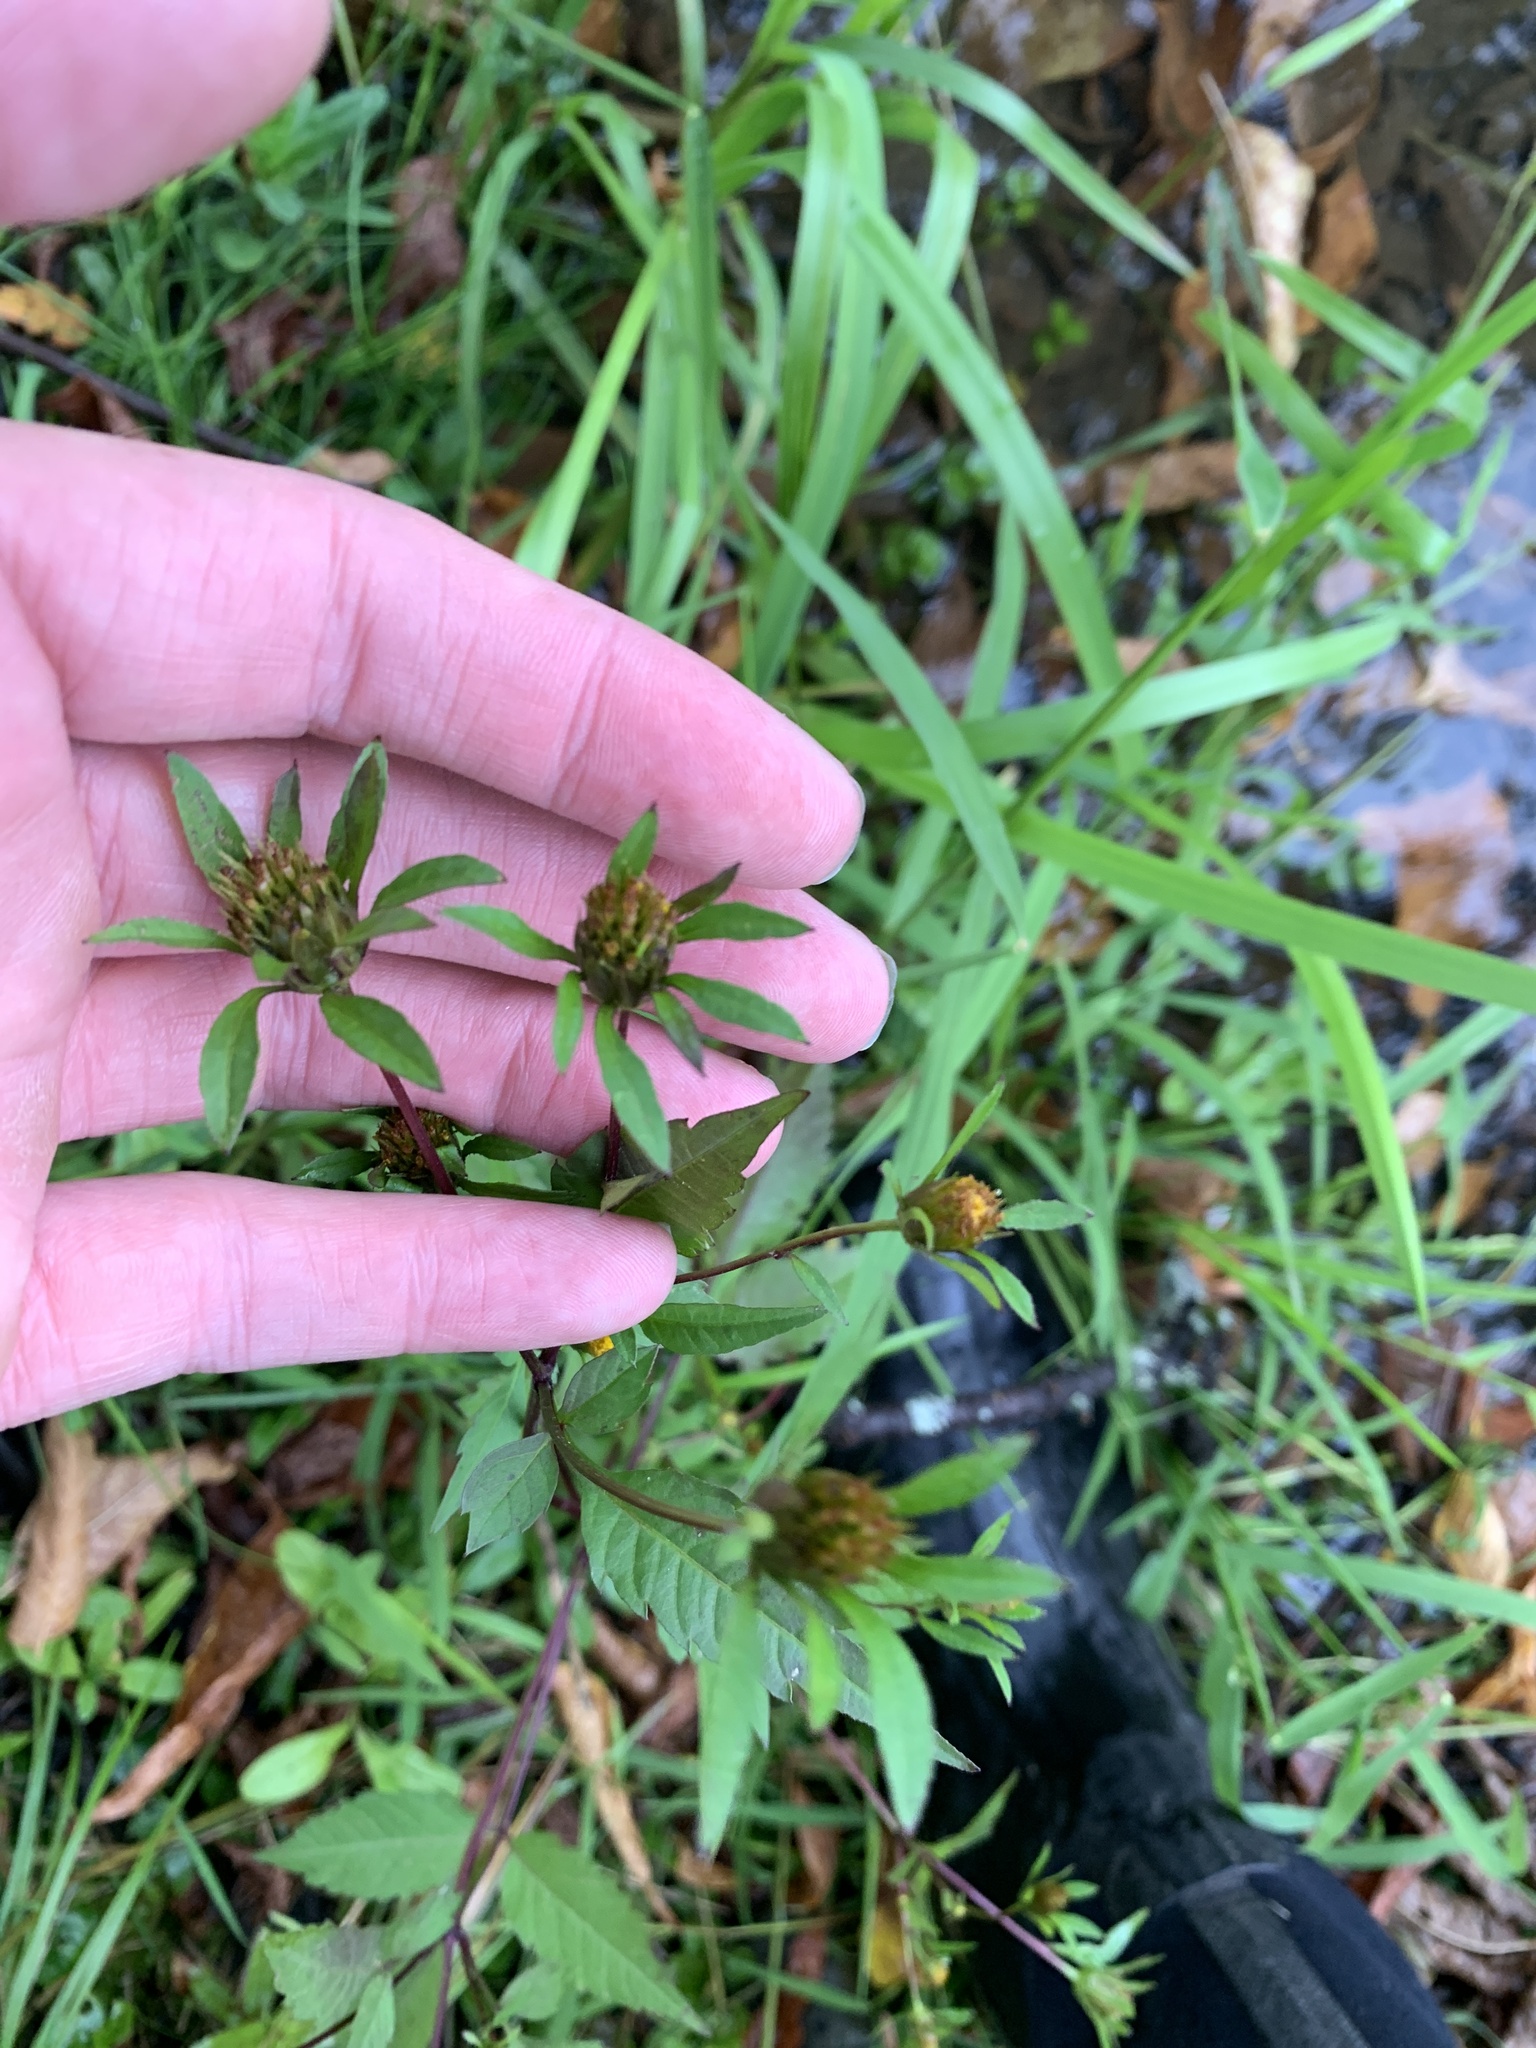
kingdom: Plantae
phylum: Tracheophyta
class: Magnoliopsida
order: Asterales
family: Asteraceae
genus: Bidens
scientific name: Bidens frondosa
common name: Beggarticks
